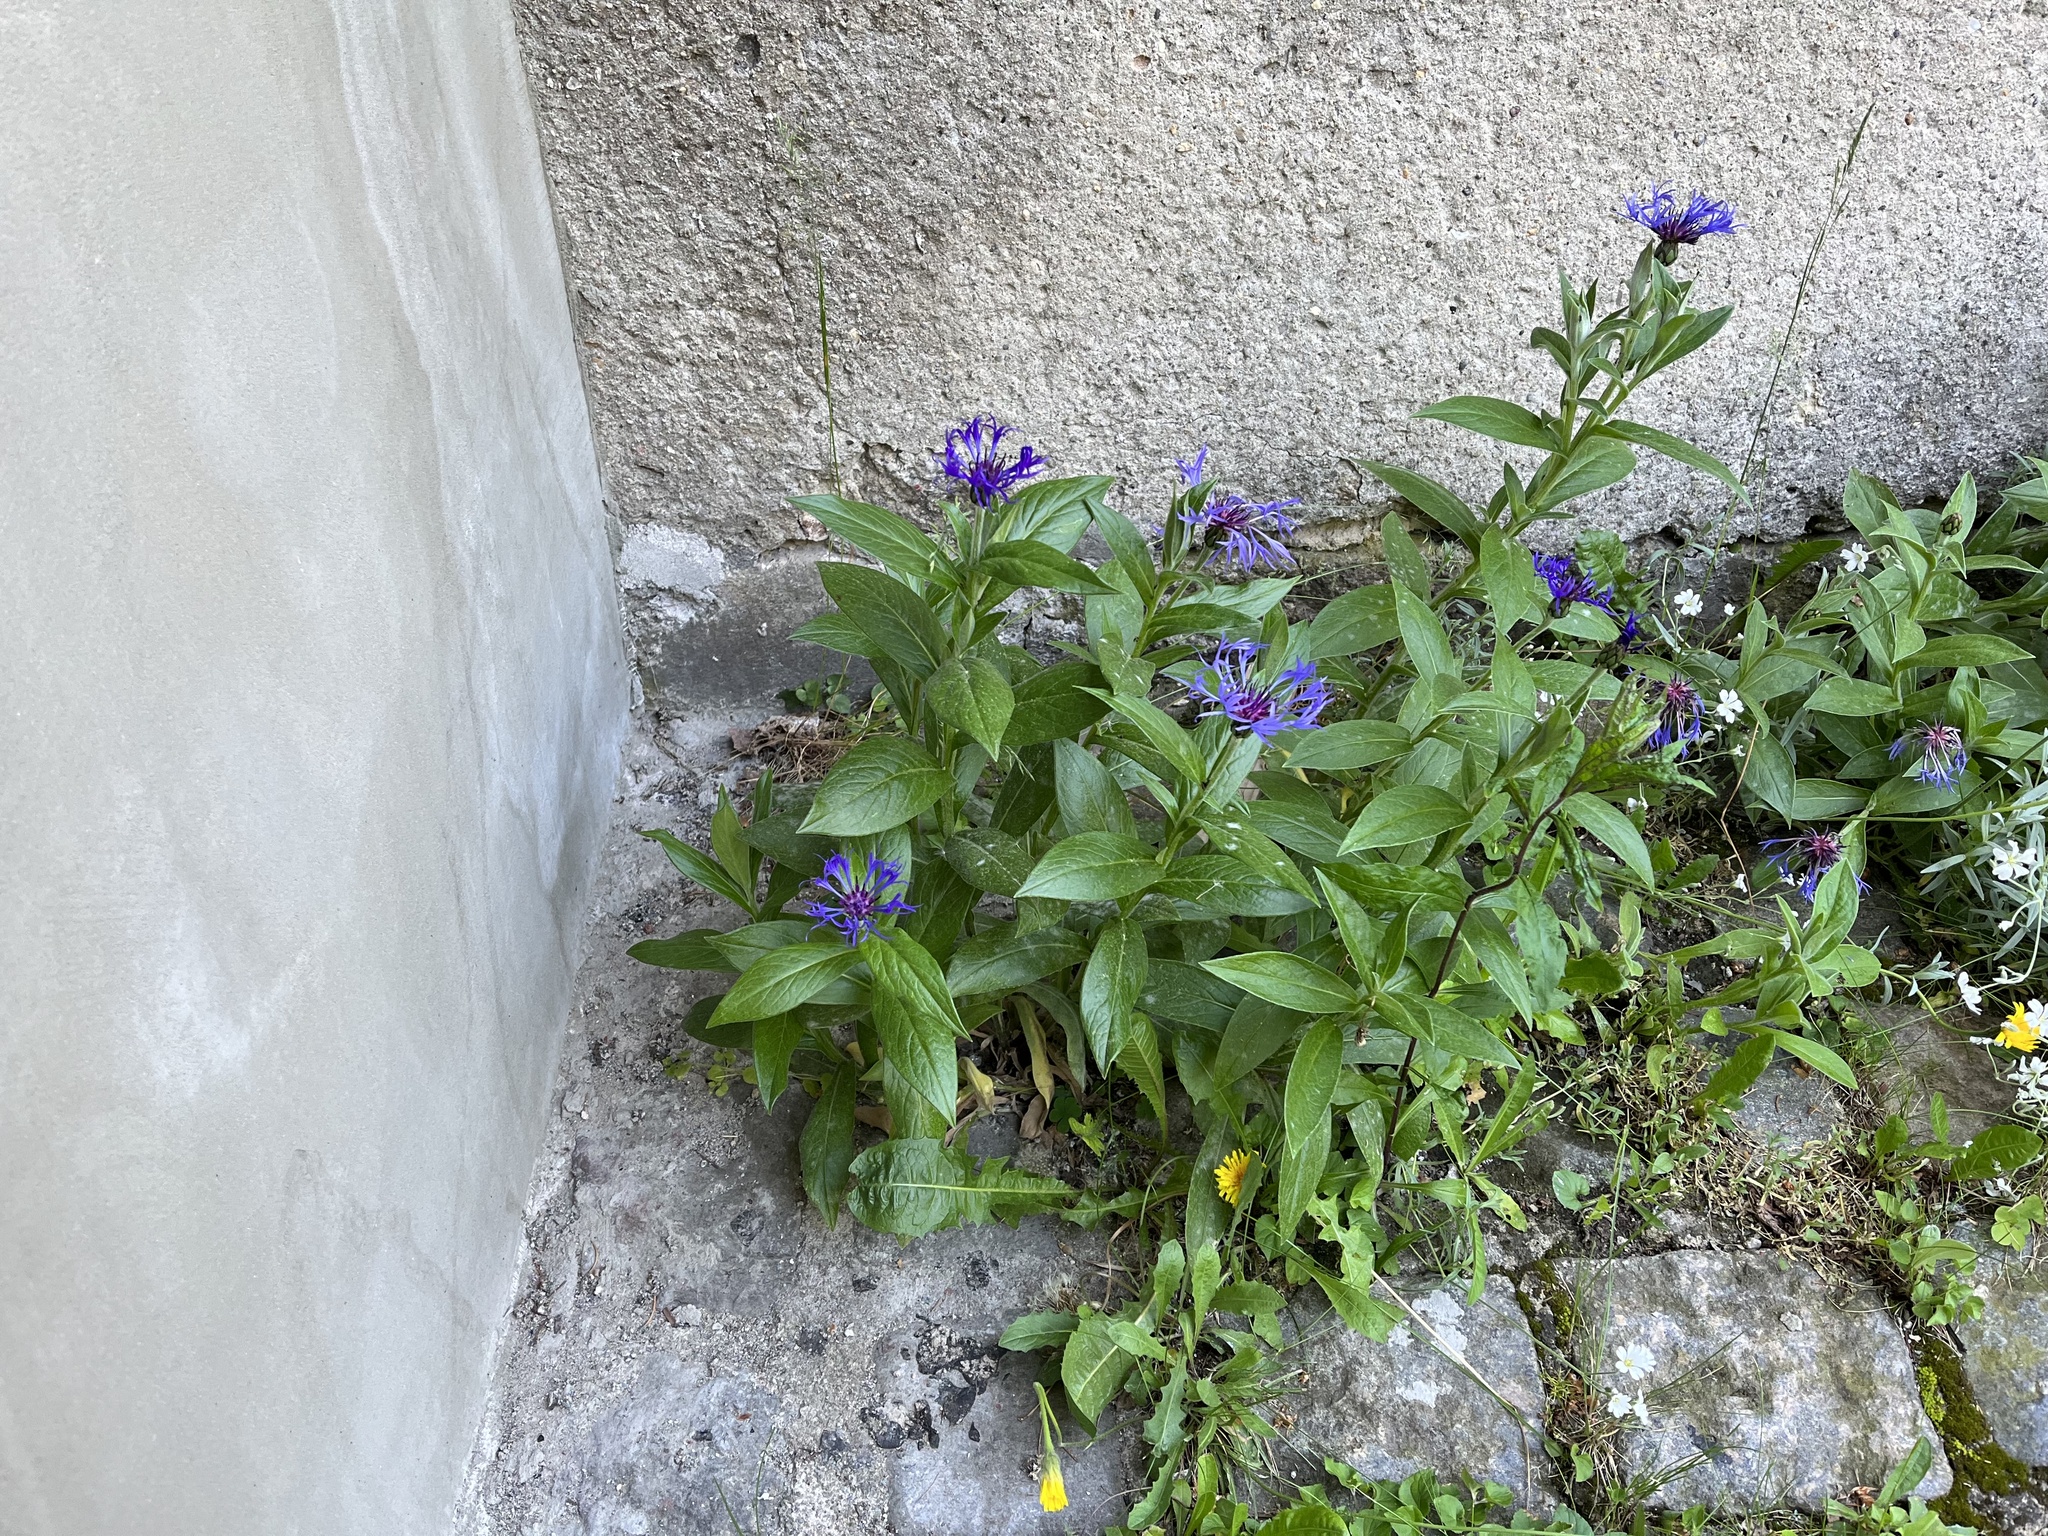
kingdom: Plantae
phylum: Tracheophyta
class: Magnoliopsida
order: Asterales
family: Asteraceae
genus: Centaurea
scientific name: Centaurea montana
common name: Perennial cornflower
